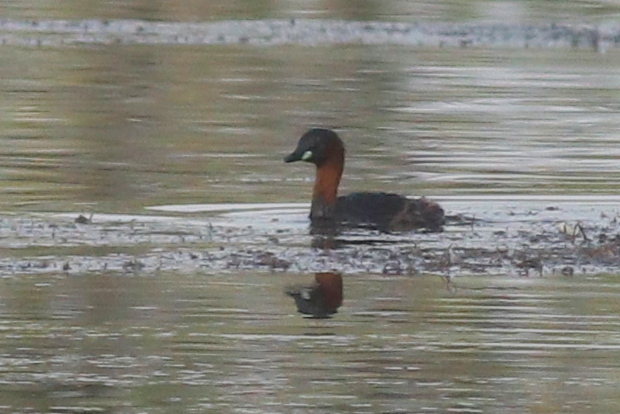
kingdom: Animalia
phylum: Chordata
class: Aves
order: Podicipediformes
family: Podicipedidae
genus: Tachybaptus
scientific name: Tachybaptus ruficollis
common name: Little grebe
